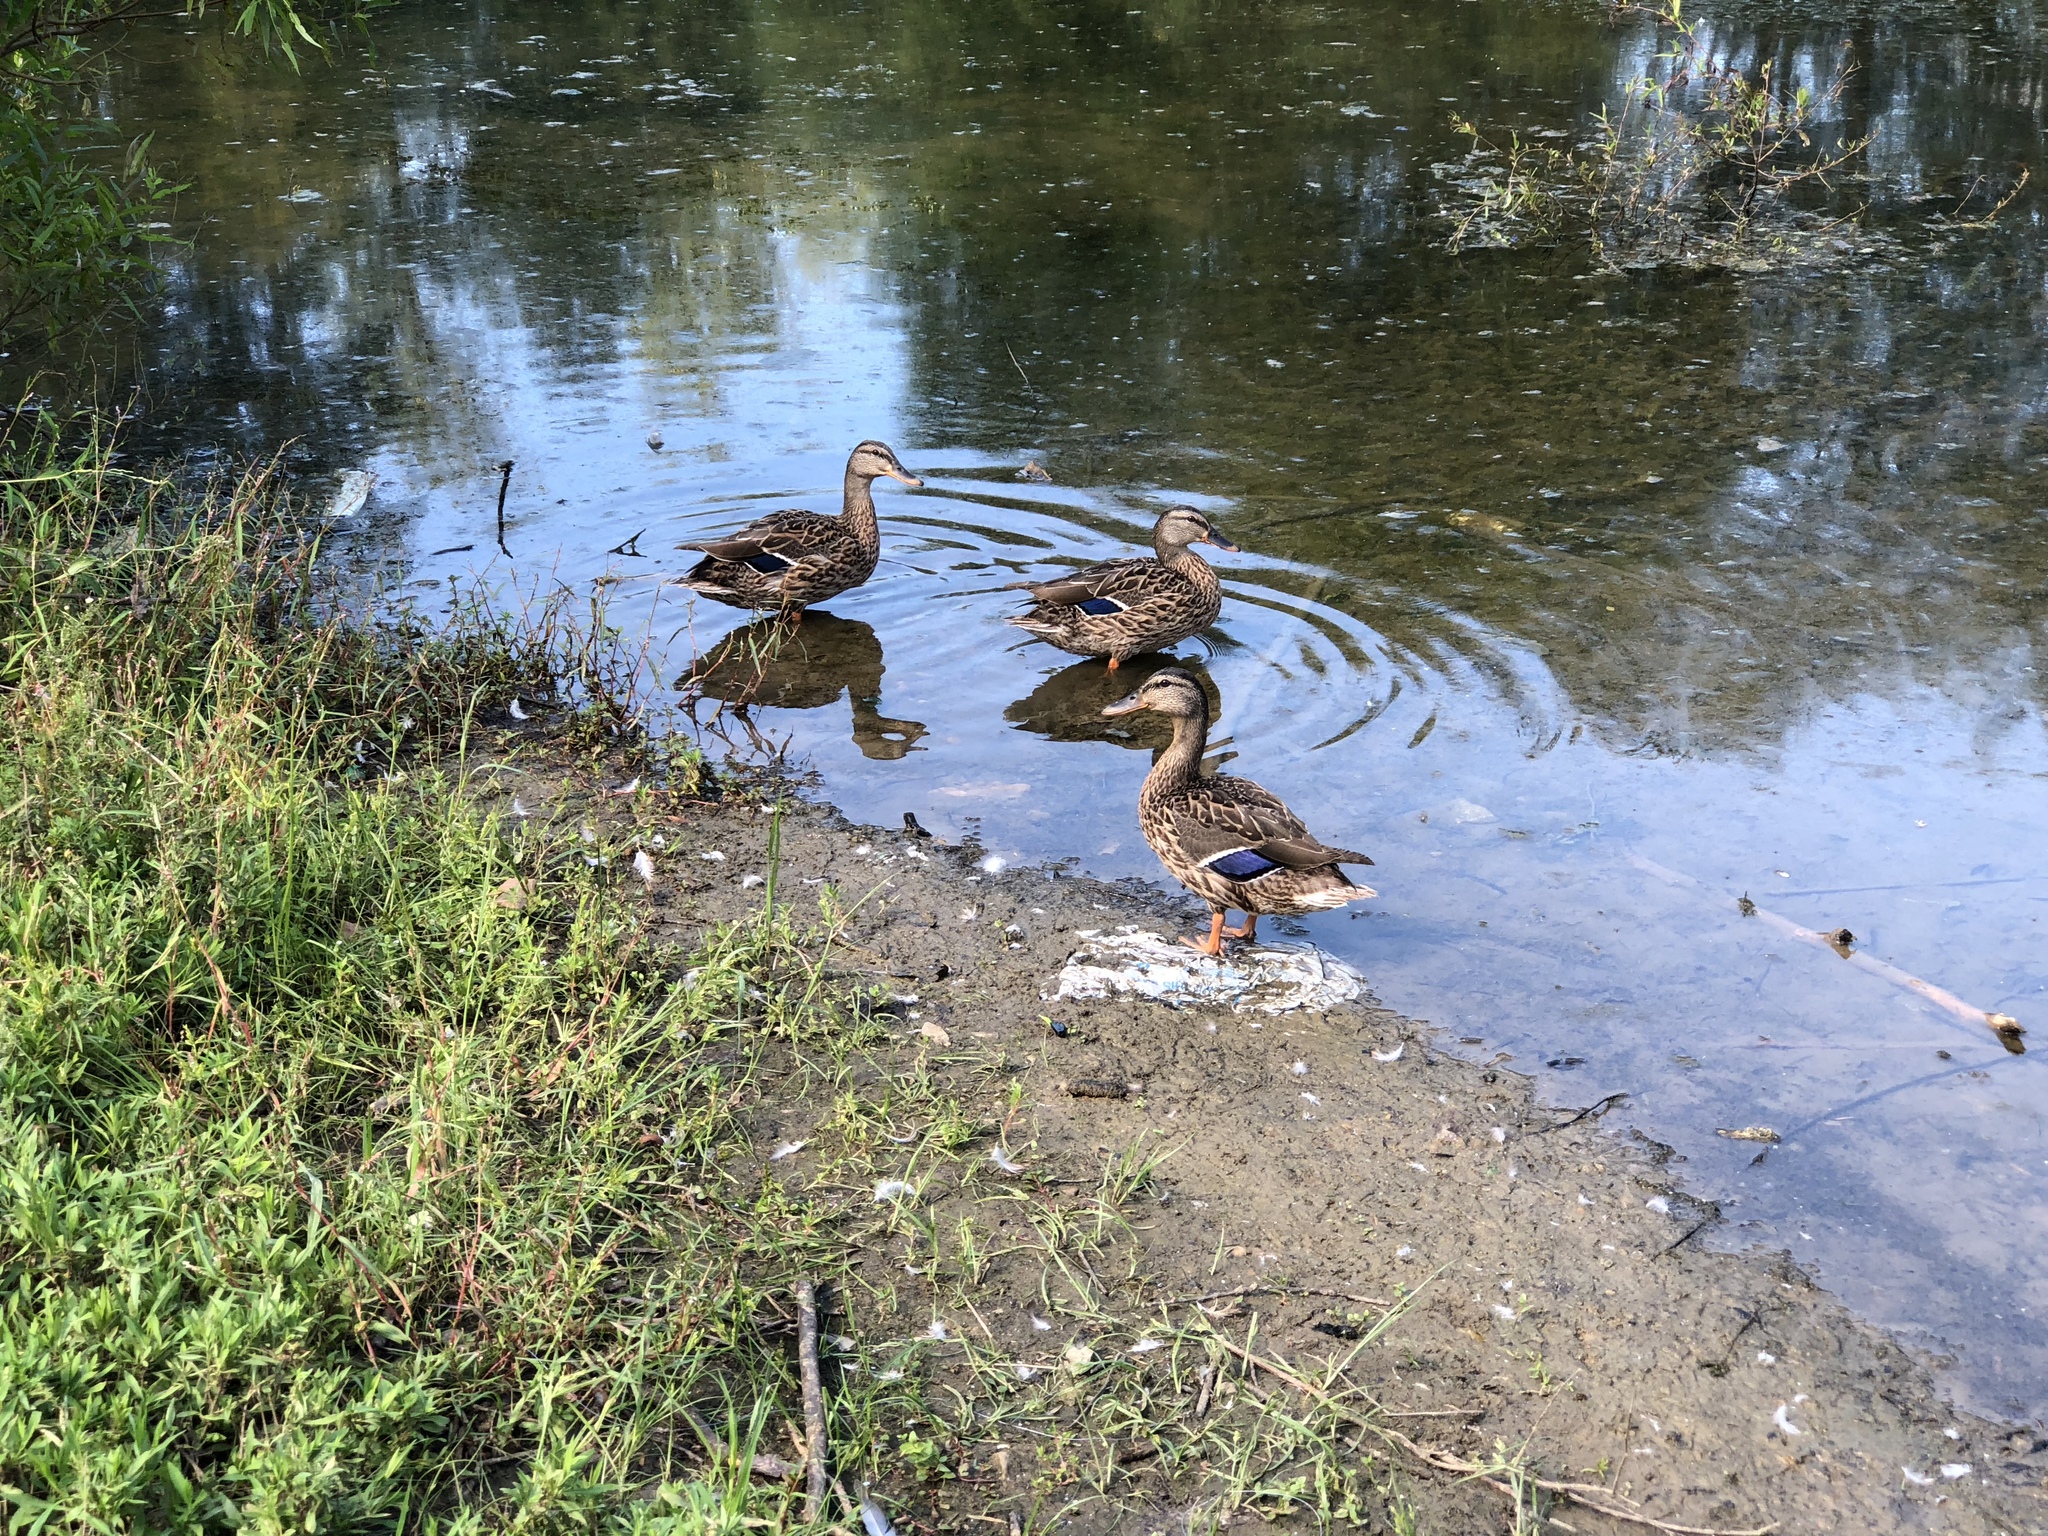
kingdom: Animalia
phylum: Chordata
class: Aves
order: Anseriformes
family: Anatidae
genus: Anas
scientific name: Anas platyrhynchos
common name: Mallard
